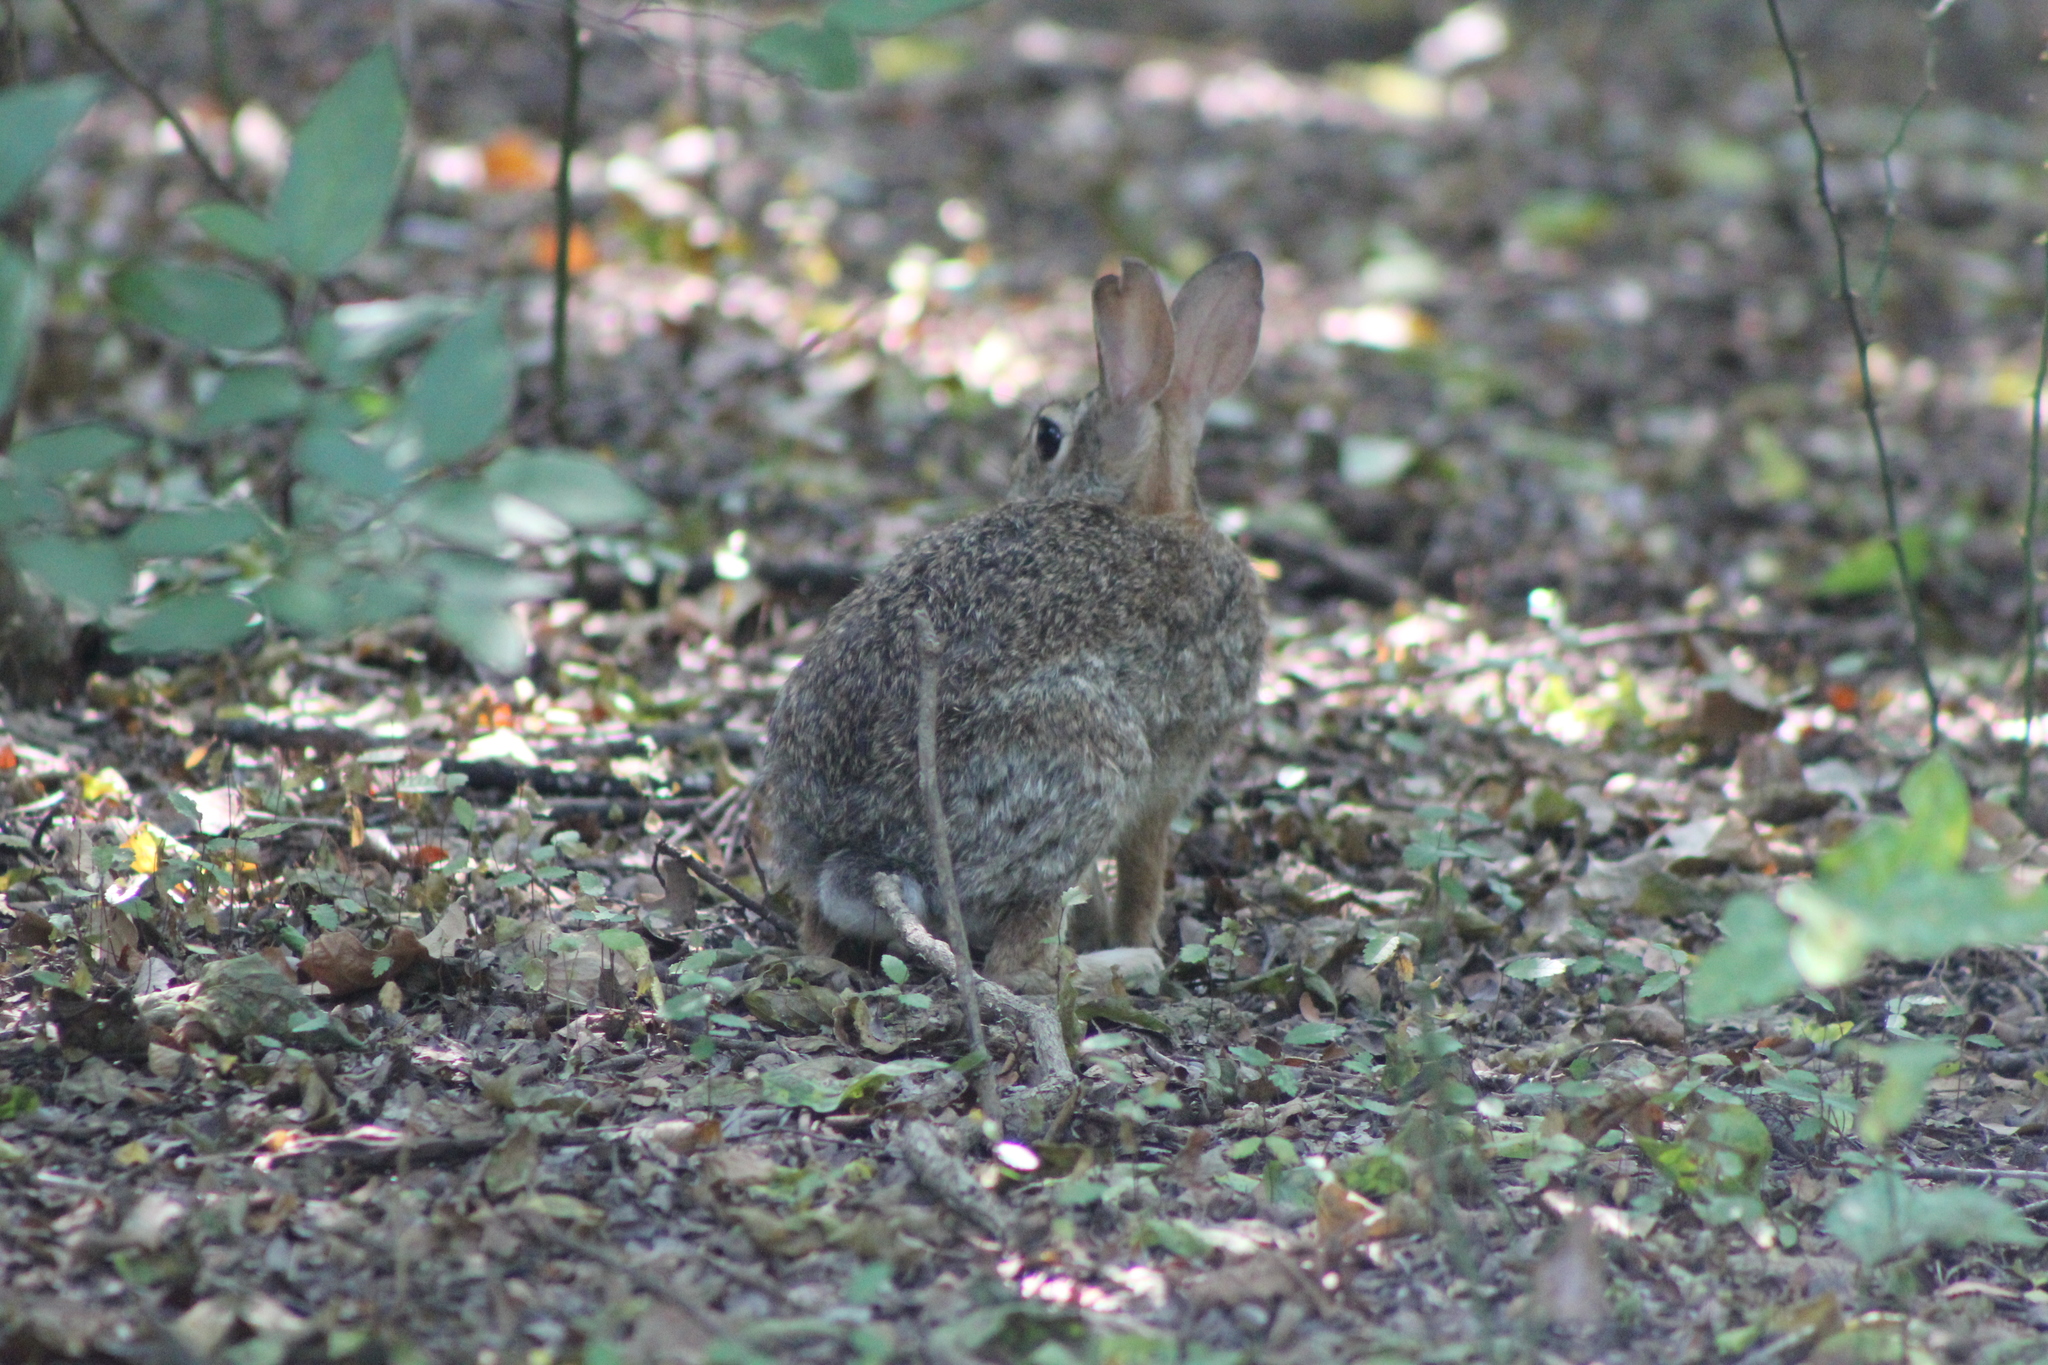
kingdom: Animalia
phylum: Chordata
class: Mammalia
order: Lagomorpha
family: Leporidae
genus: Sylvilagus
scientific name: Sylvilagus floridanus
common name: Eastern cottontail
